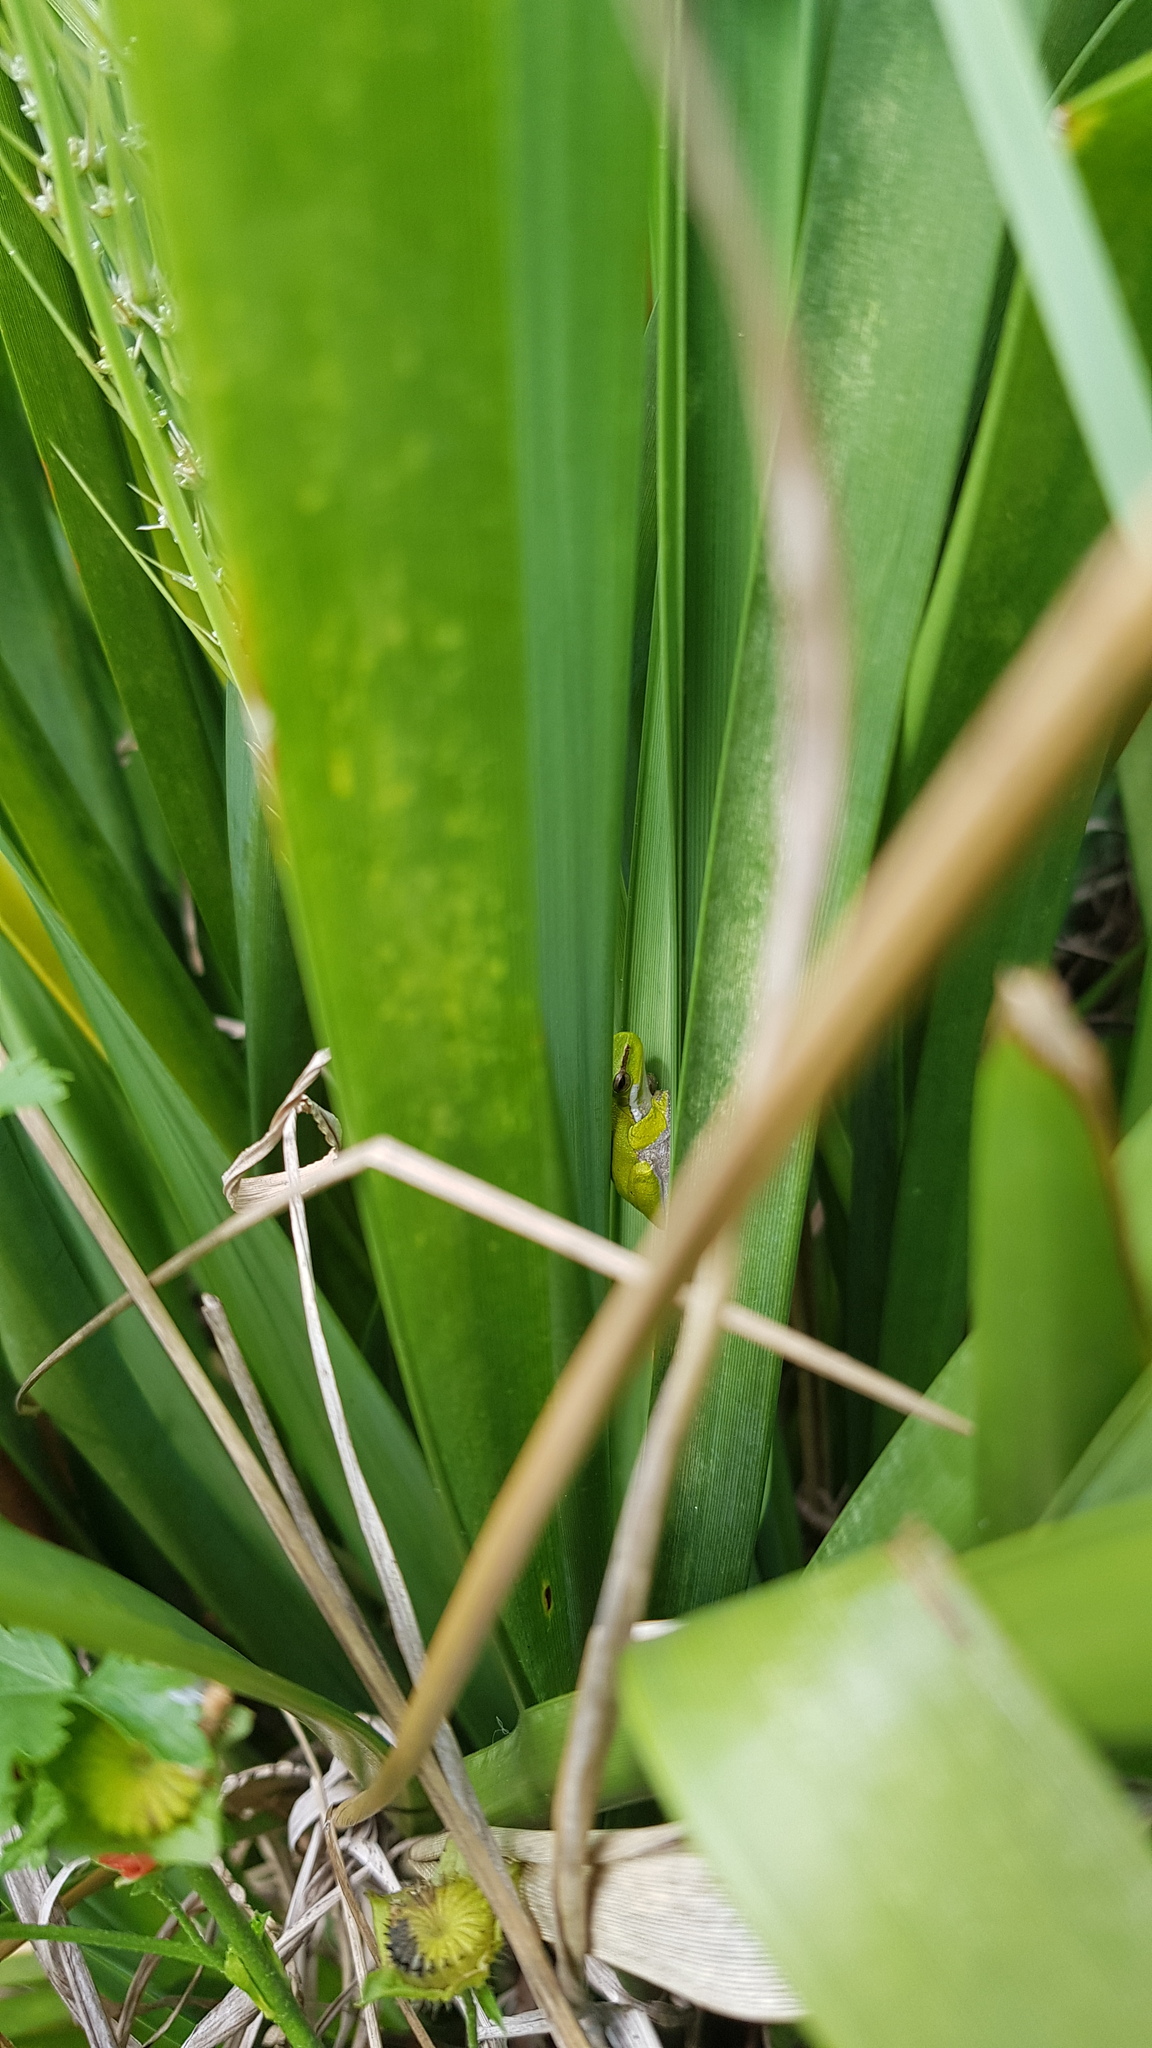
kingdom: Animalia
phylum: Chordata
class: Amphibia
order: Anura
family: Pelodryadidae
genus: Litoria
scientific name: Litoria fallax
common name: Eastern dwarf treefrog
